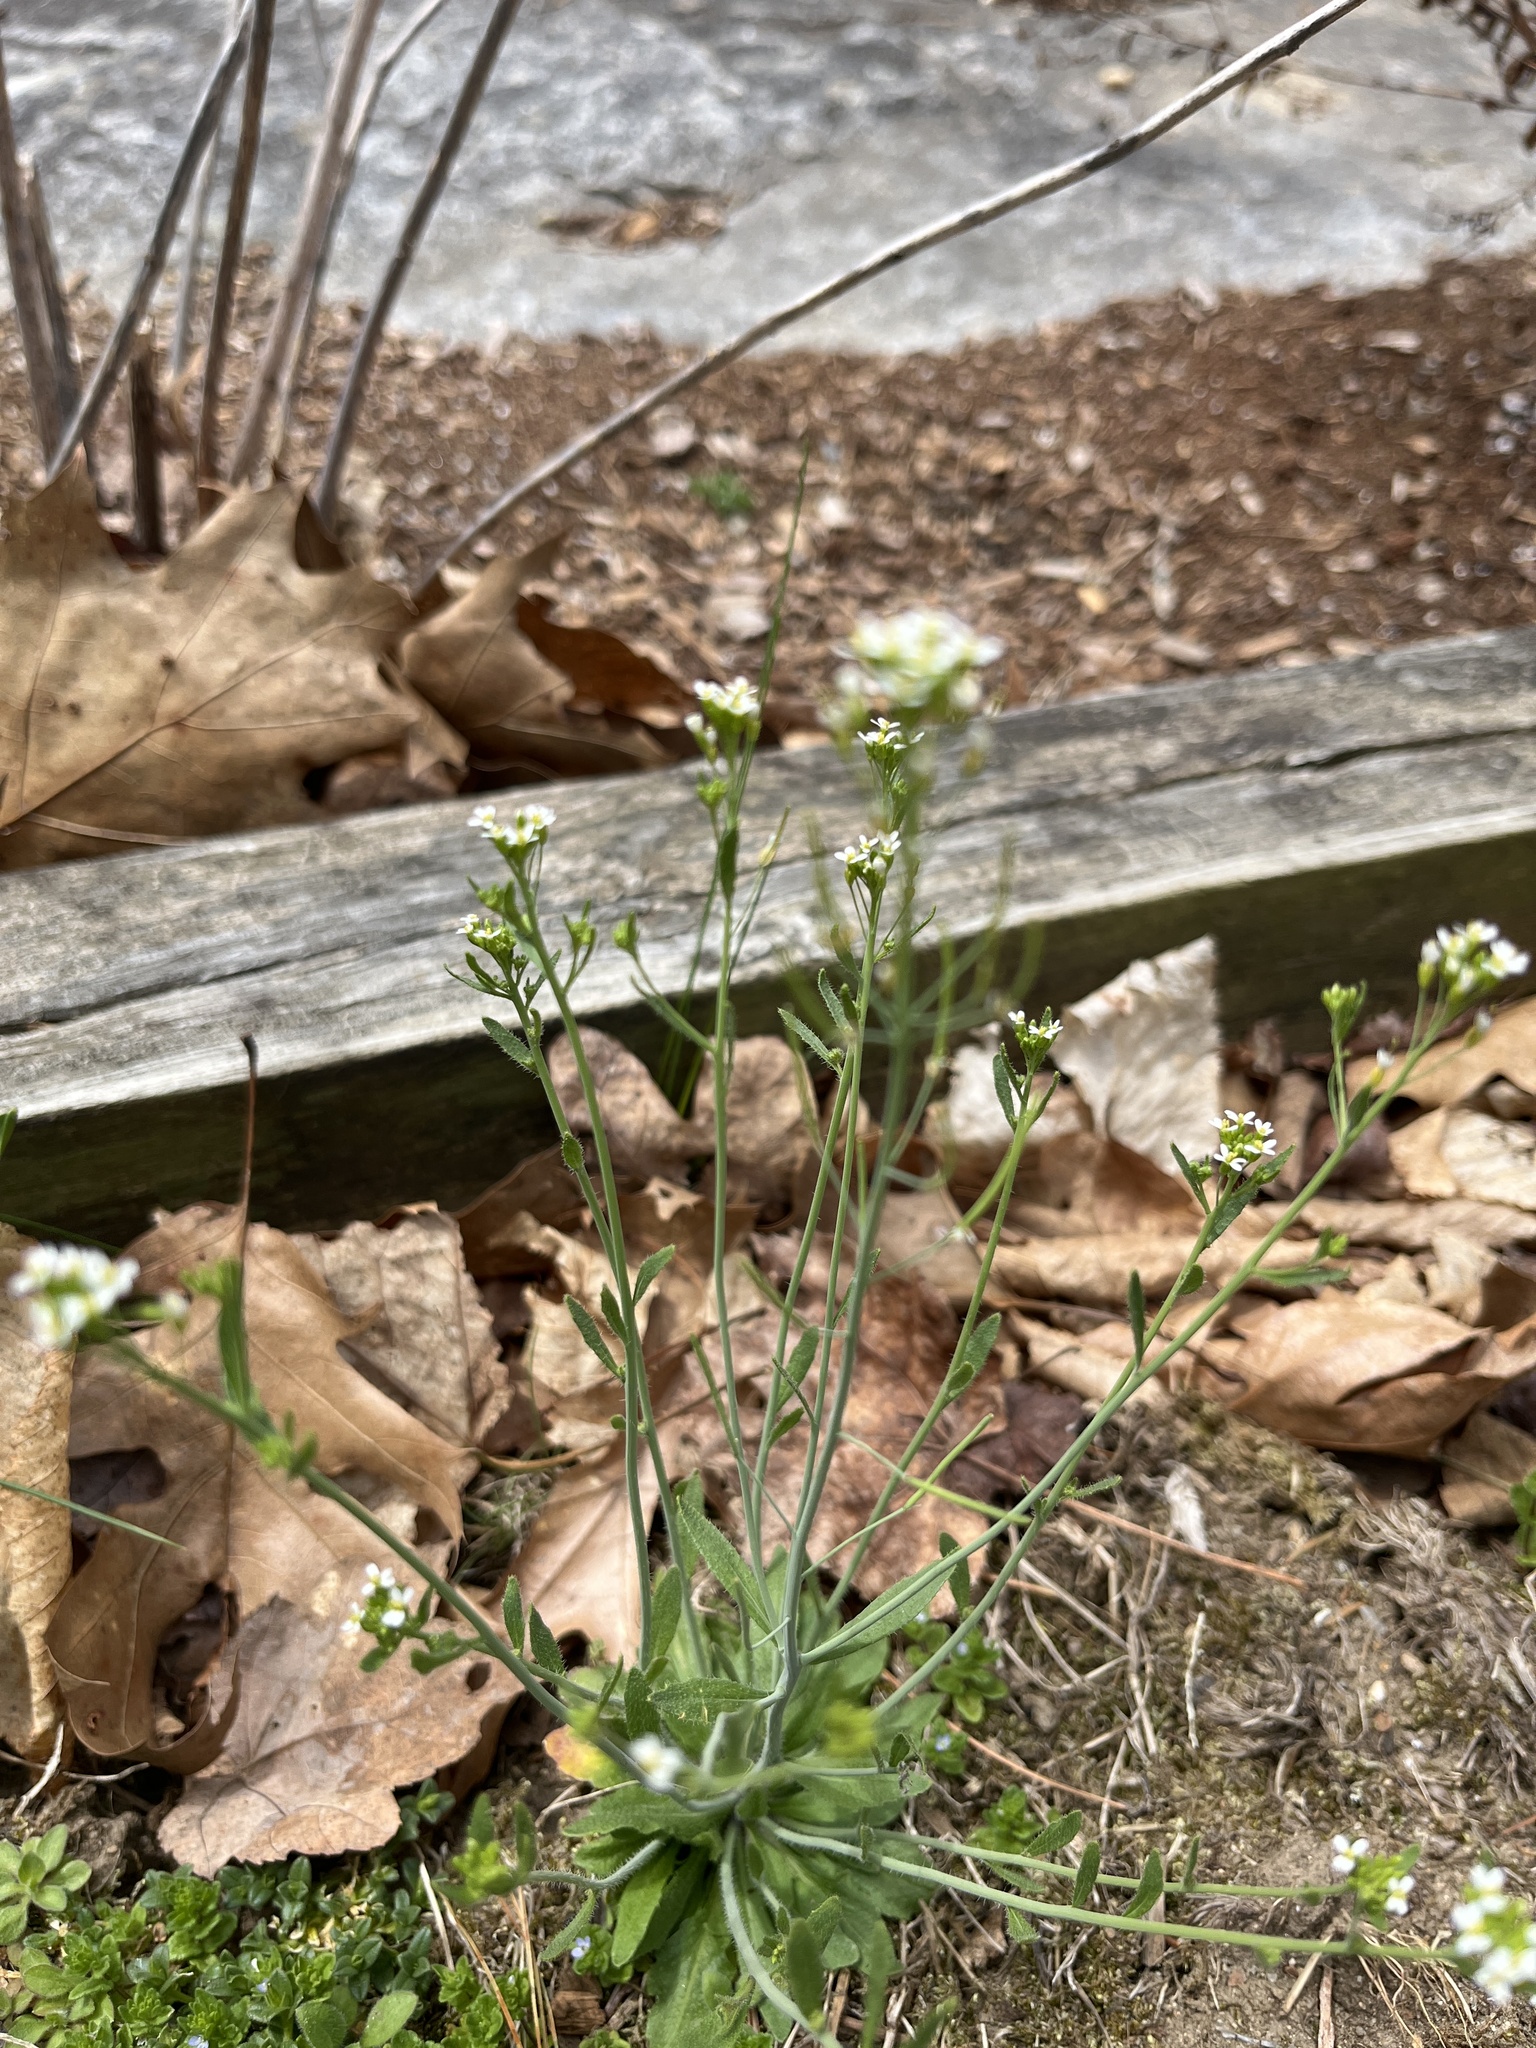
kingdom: Plantae
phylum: Tracheophyta
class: Magnoliopsida
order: Brassicales
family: Brassicaceae
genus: Arabidopsis
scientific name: Arabidopsis thaliana
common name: Thale cress
